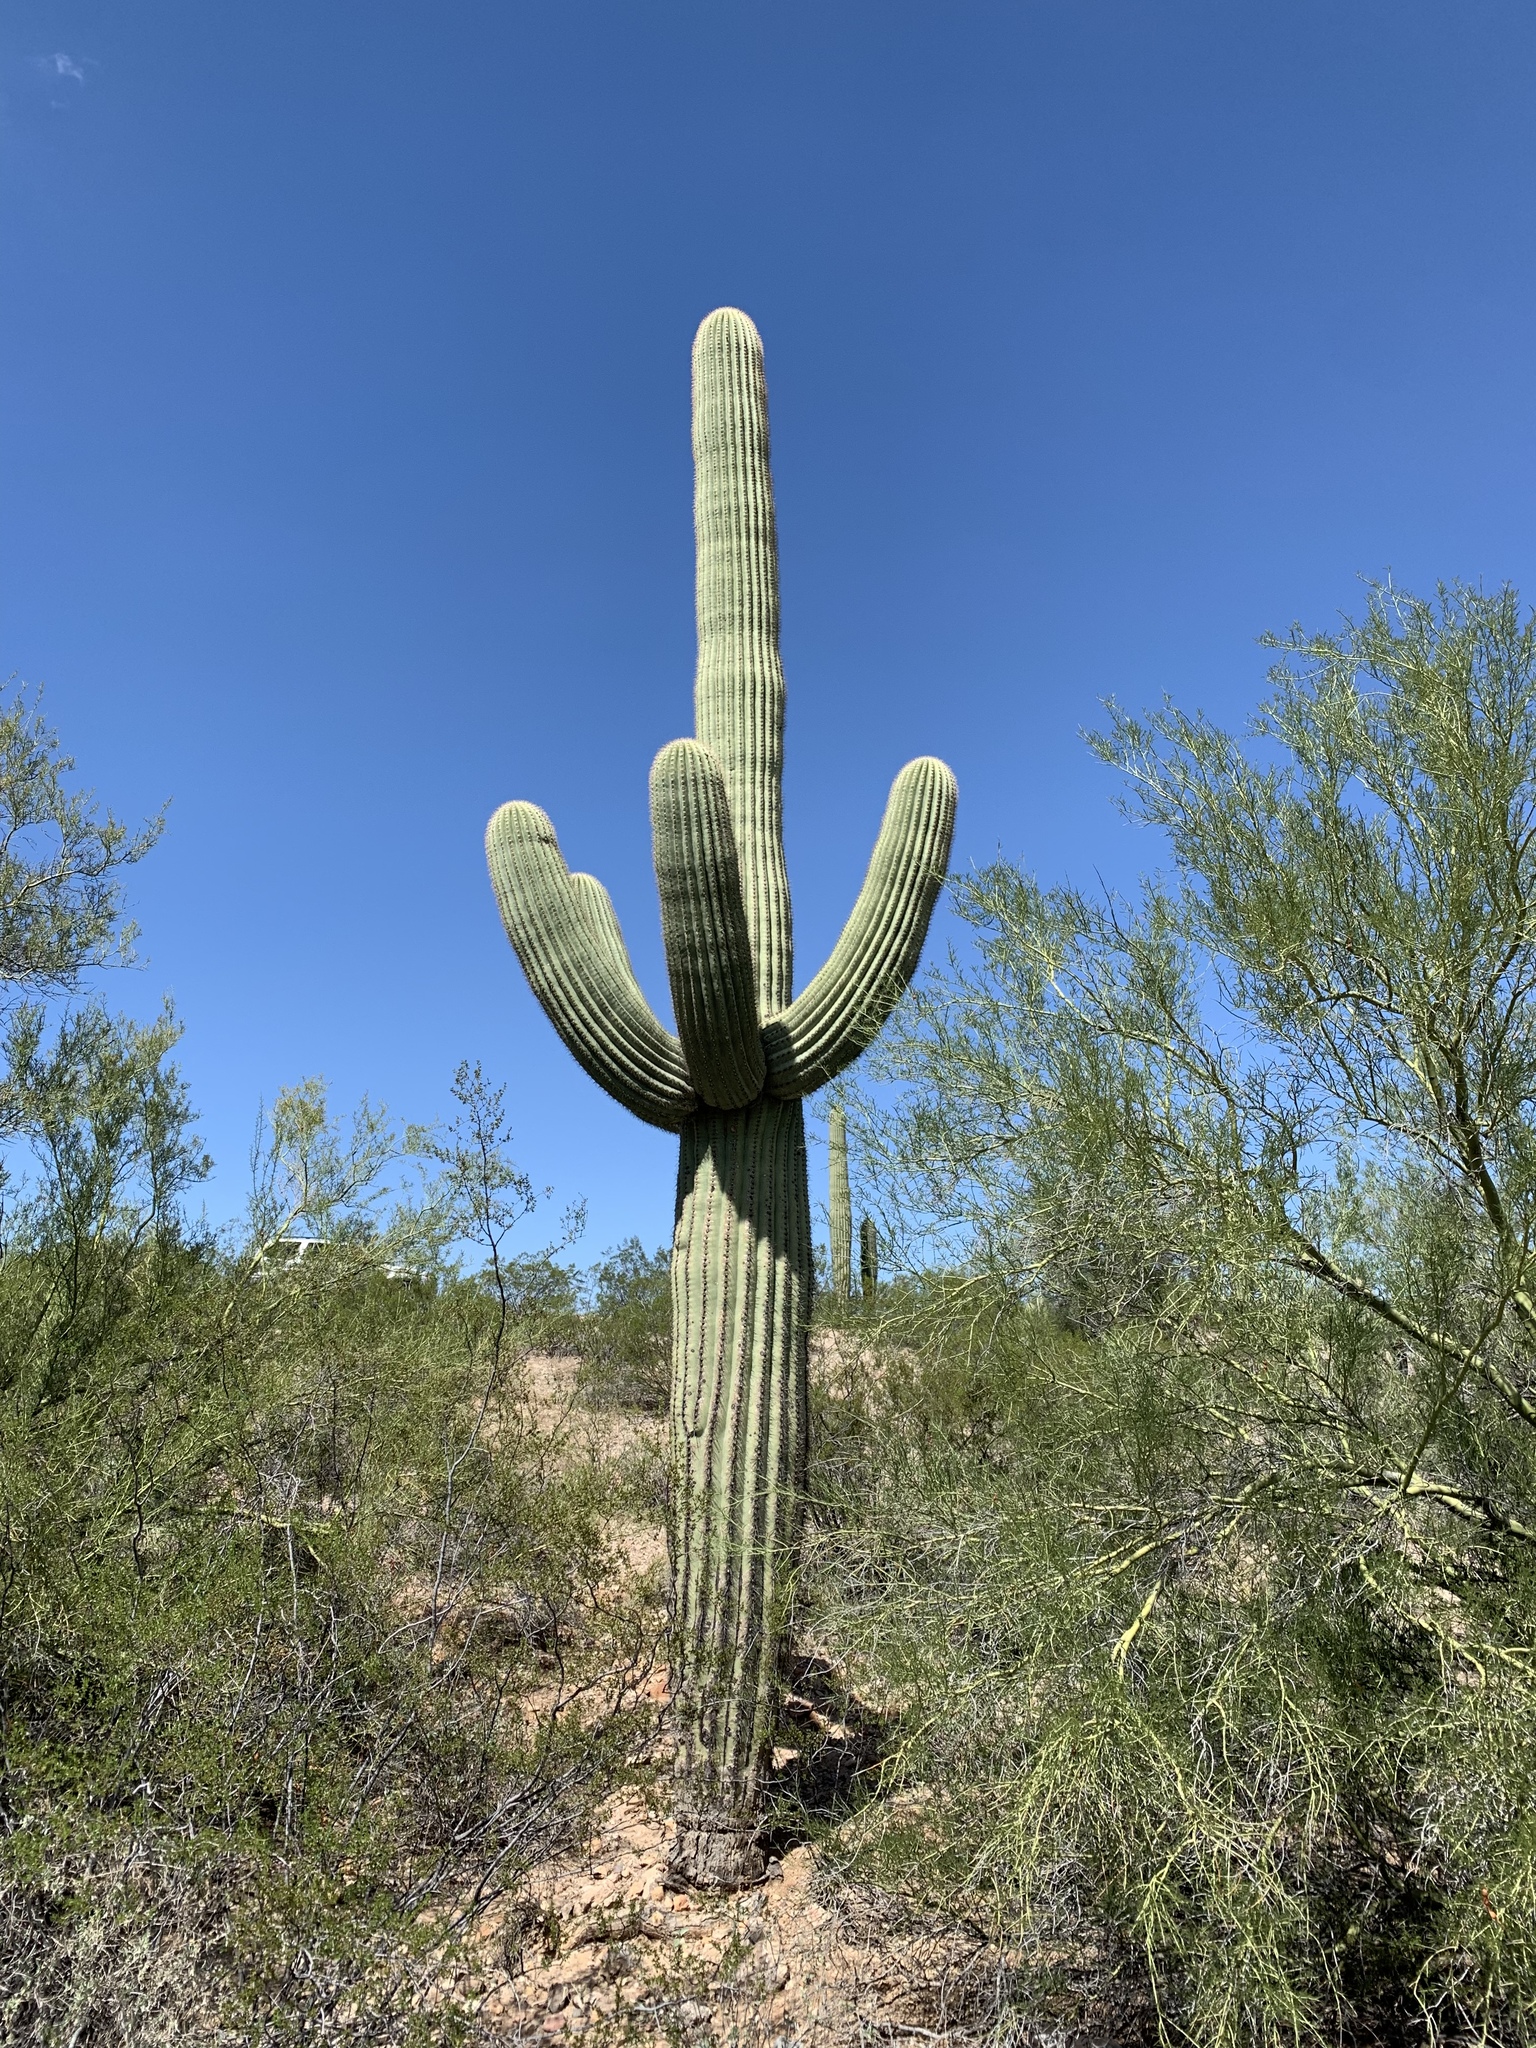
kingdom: Plantae
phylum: Tracheophyta
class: Magnoliopsida
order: Caryophyllales
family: Cactaceae
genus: Carnegiea
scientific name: Carnegiea gigantea
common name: Saguaro
